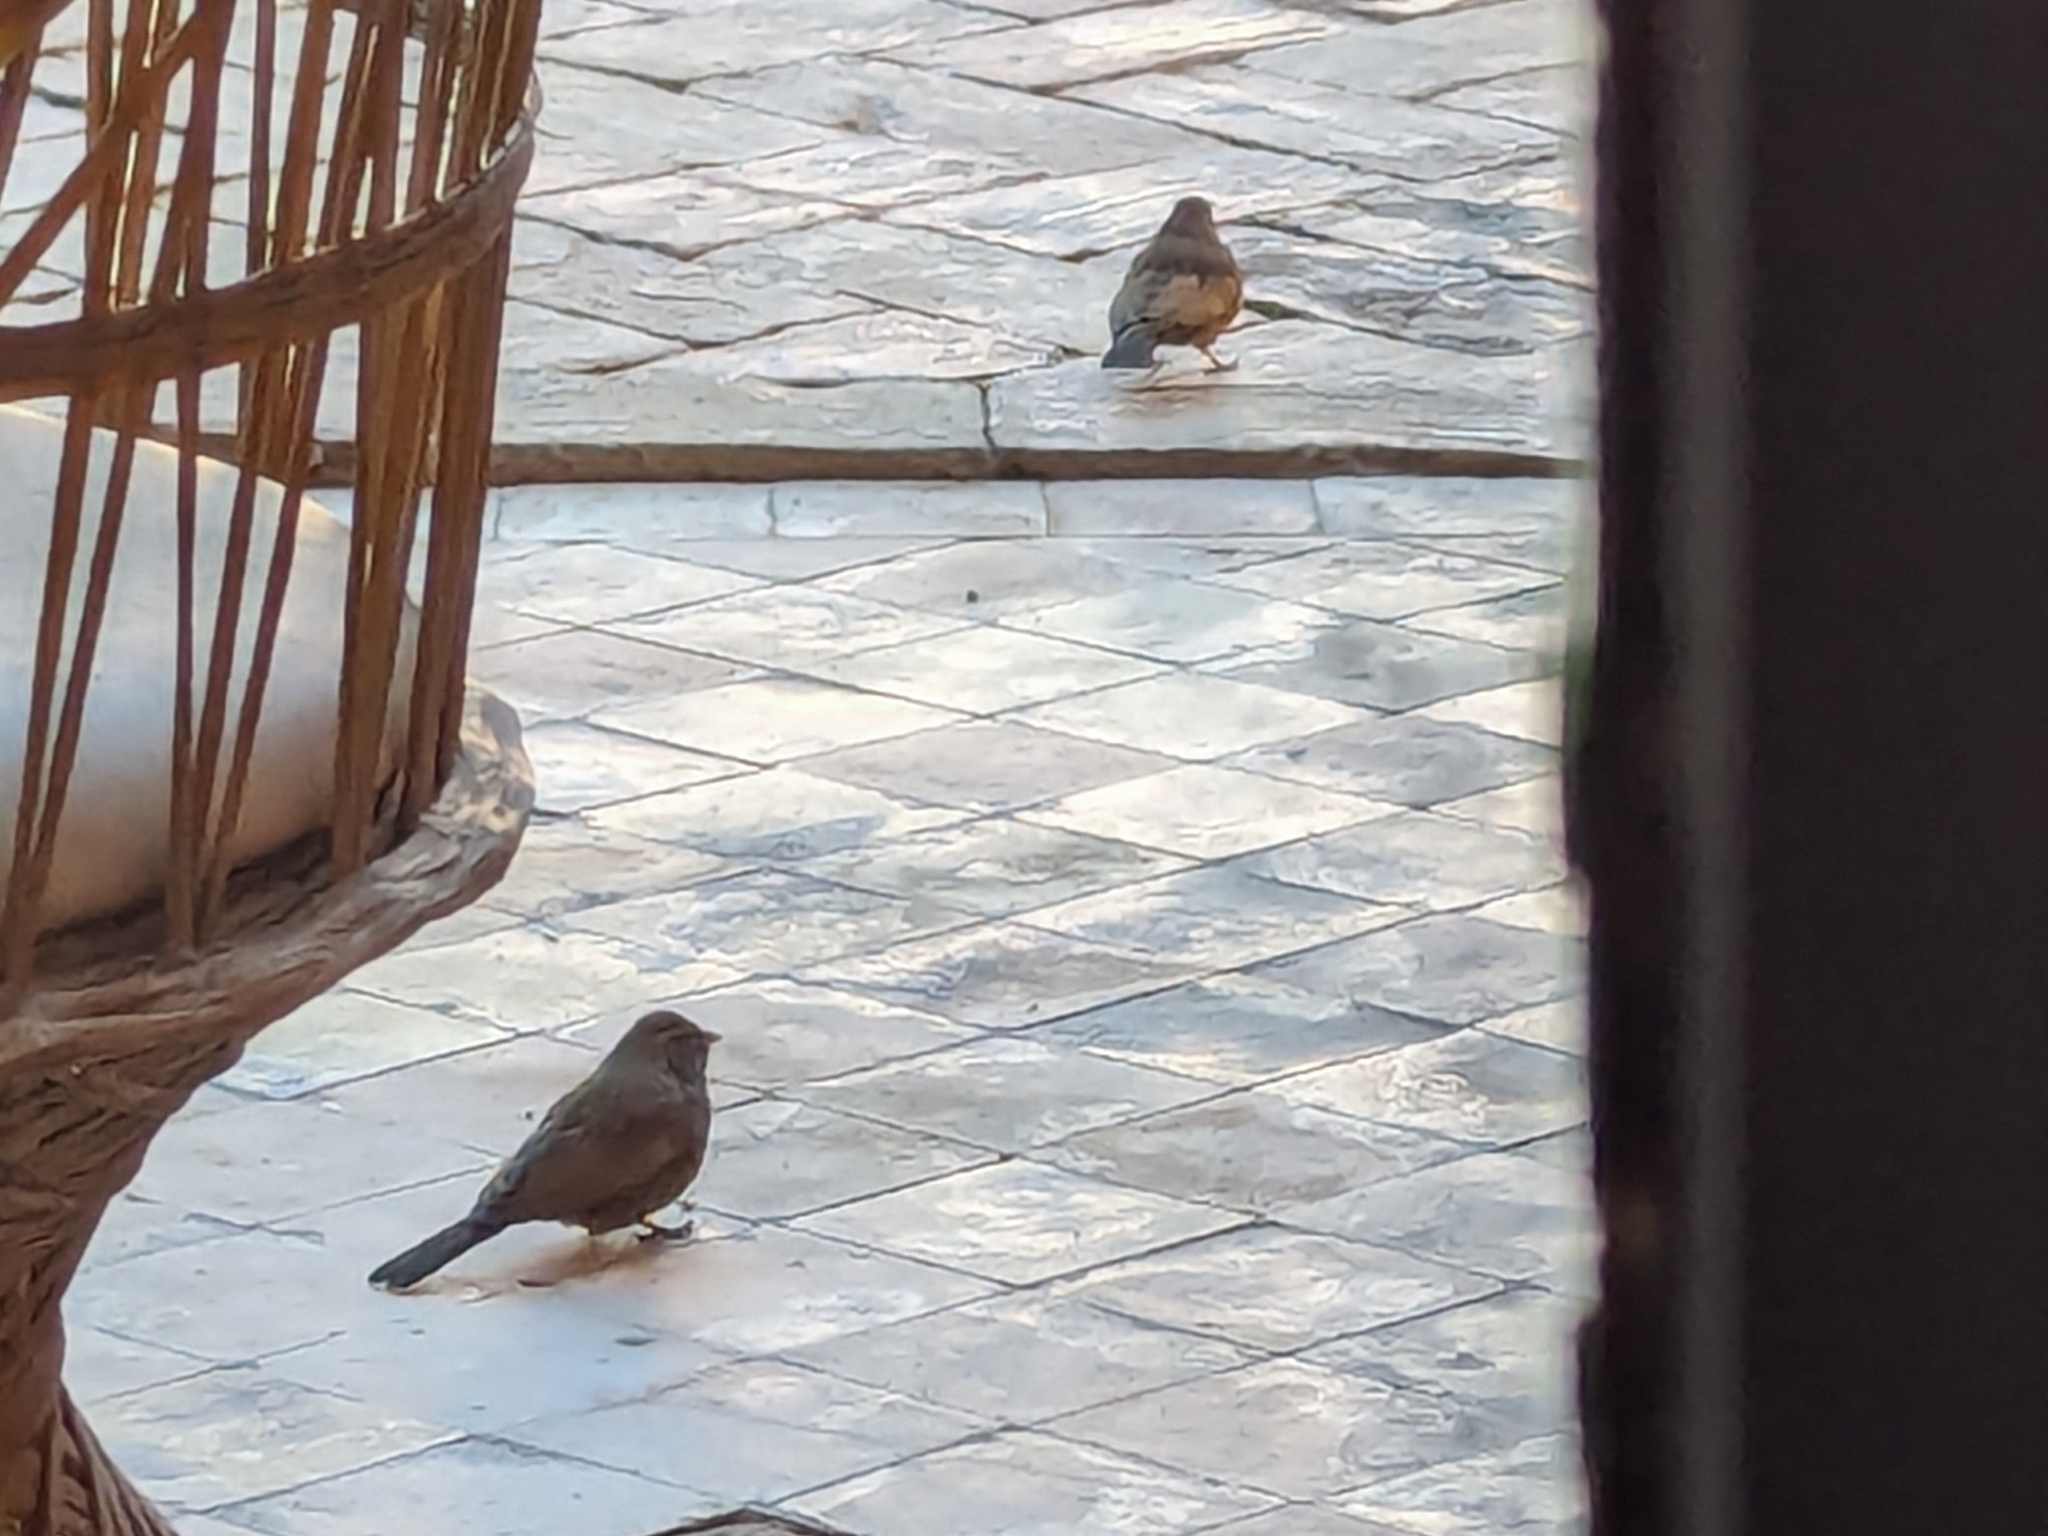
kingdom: Animalia
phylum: Chordata
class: Aves
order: Passeriformes
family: Emberizidae
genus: Emberiza
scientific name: Emberiza sahari
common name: House bunting
